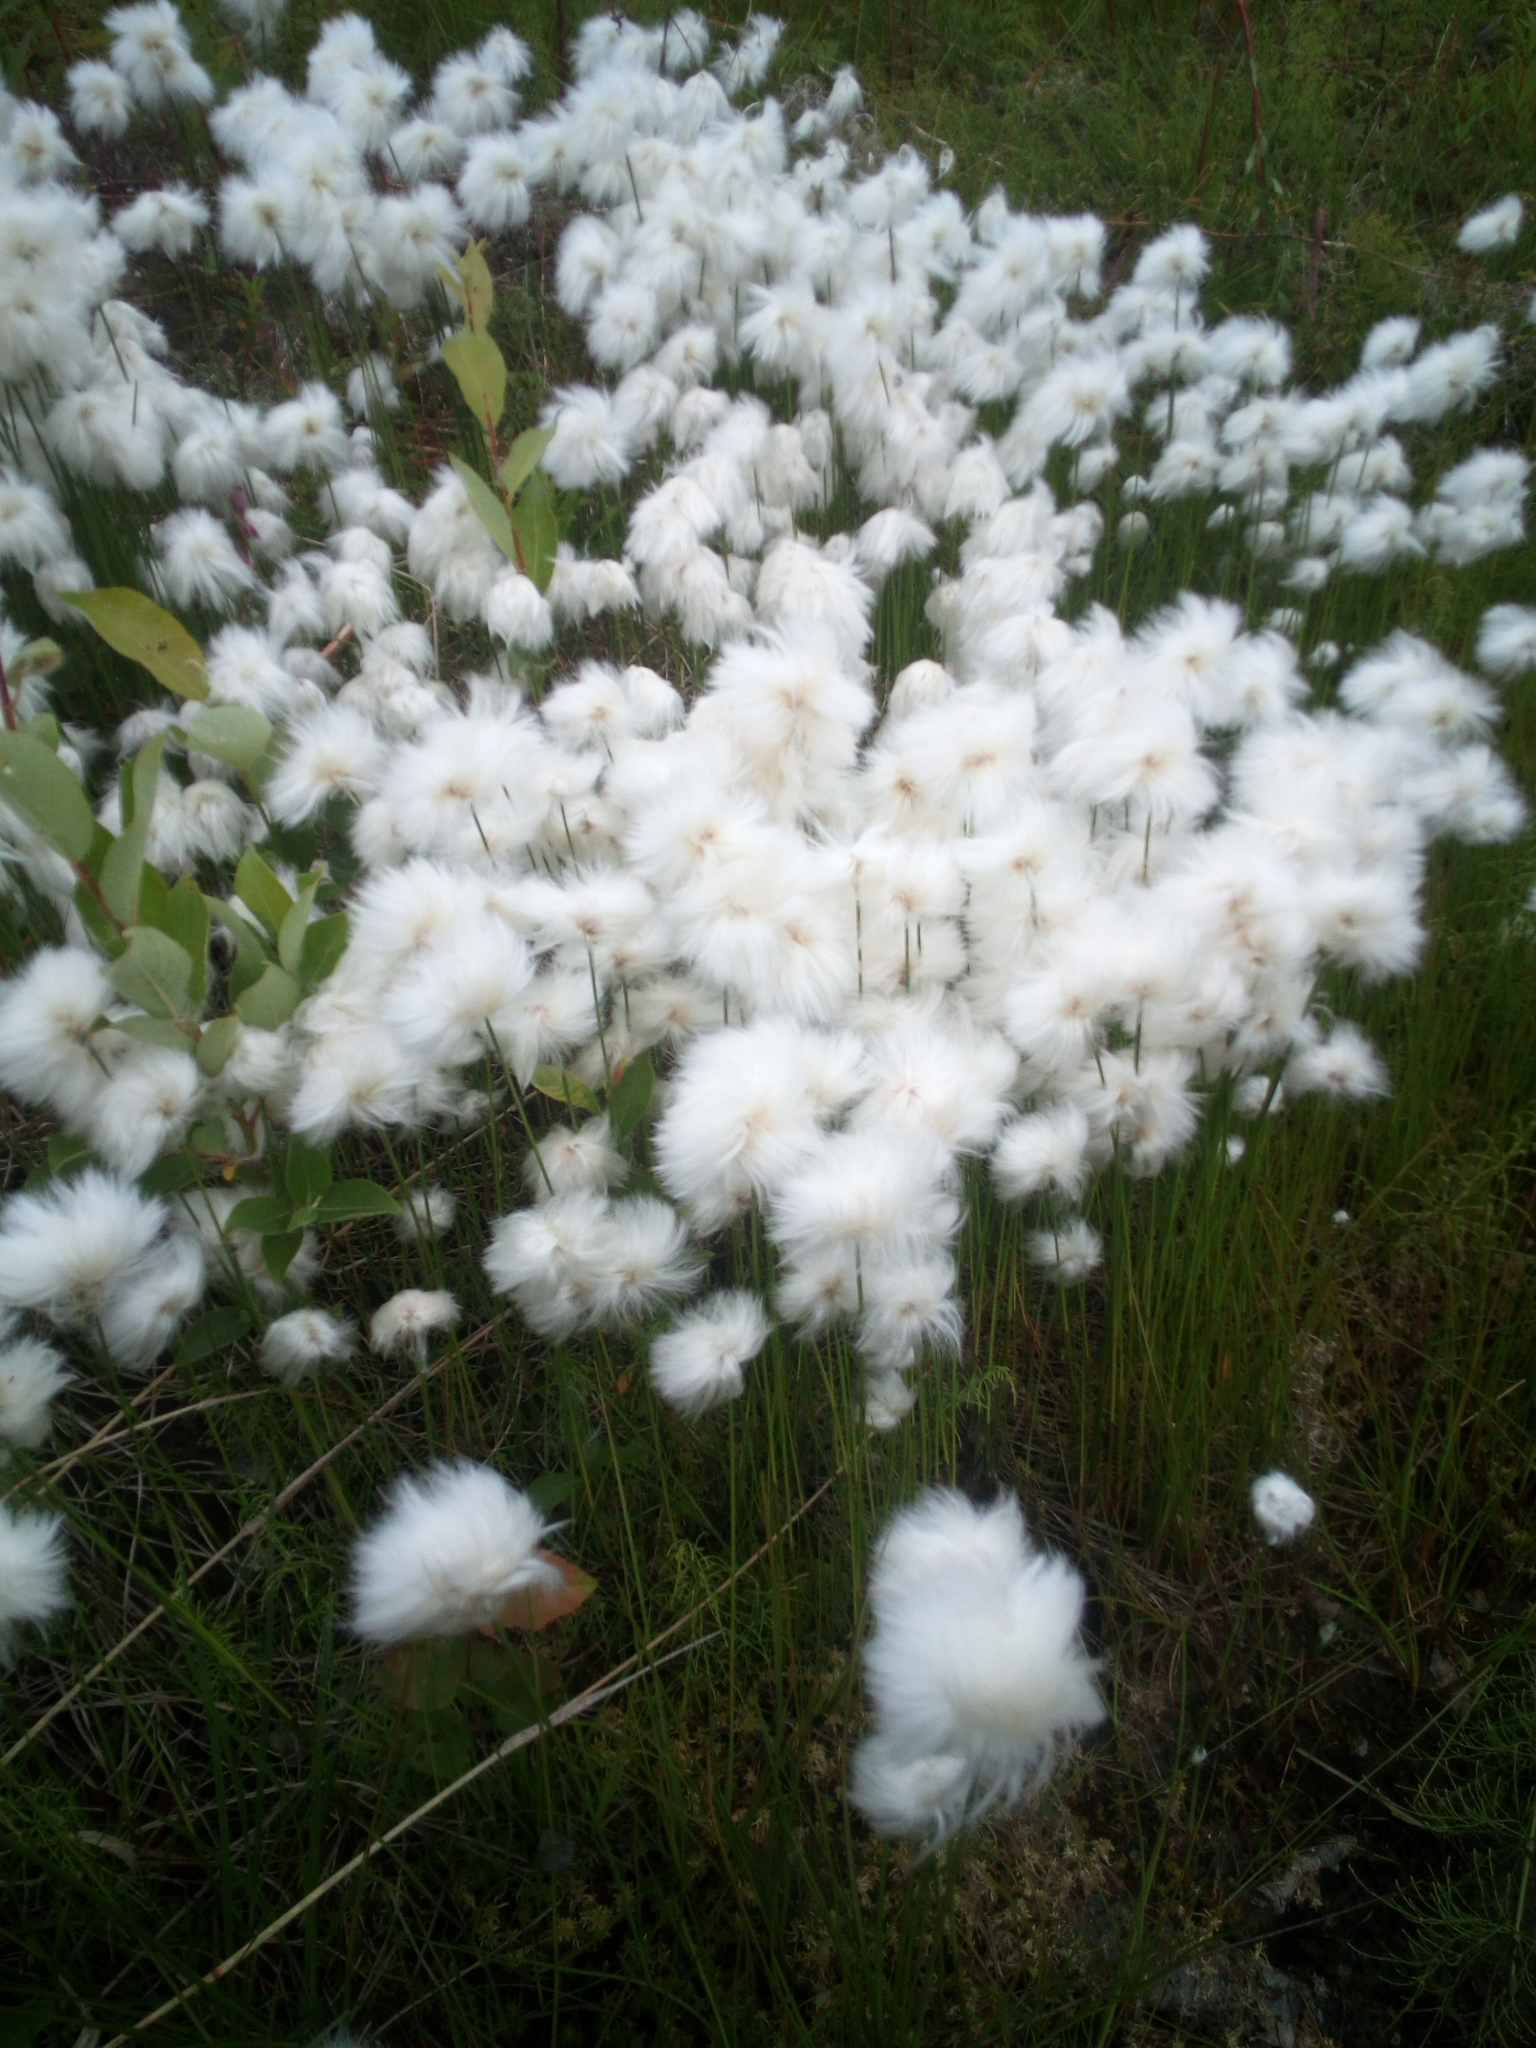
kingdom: Plantae
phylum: Tracheophyta
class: Liliopsida
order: Poales
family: Cyperaceae
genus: Eriophorum
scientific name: Eriophorum scheuchzeri
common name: Scheuchzer's cottongrass
